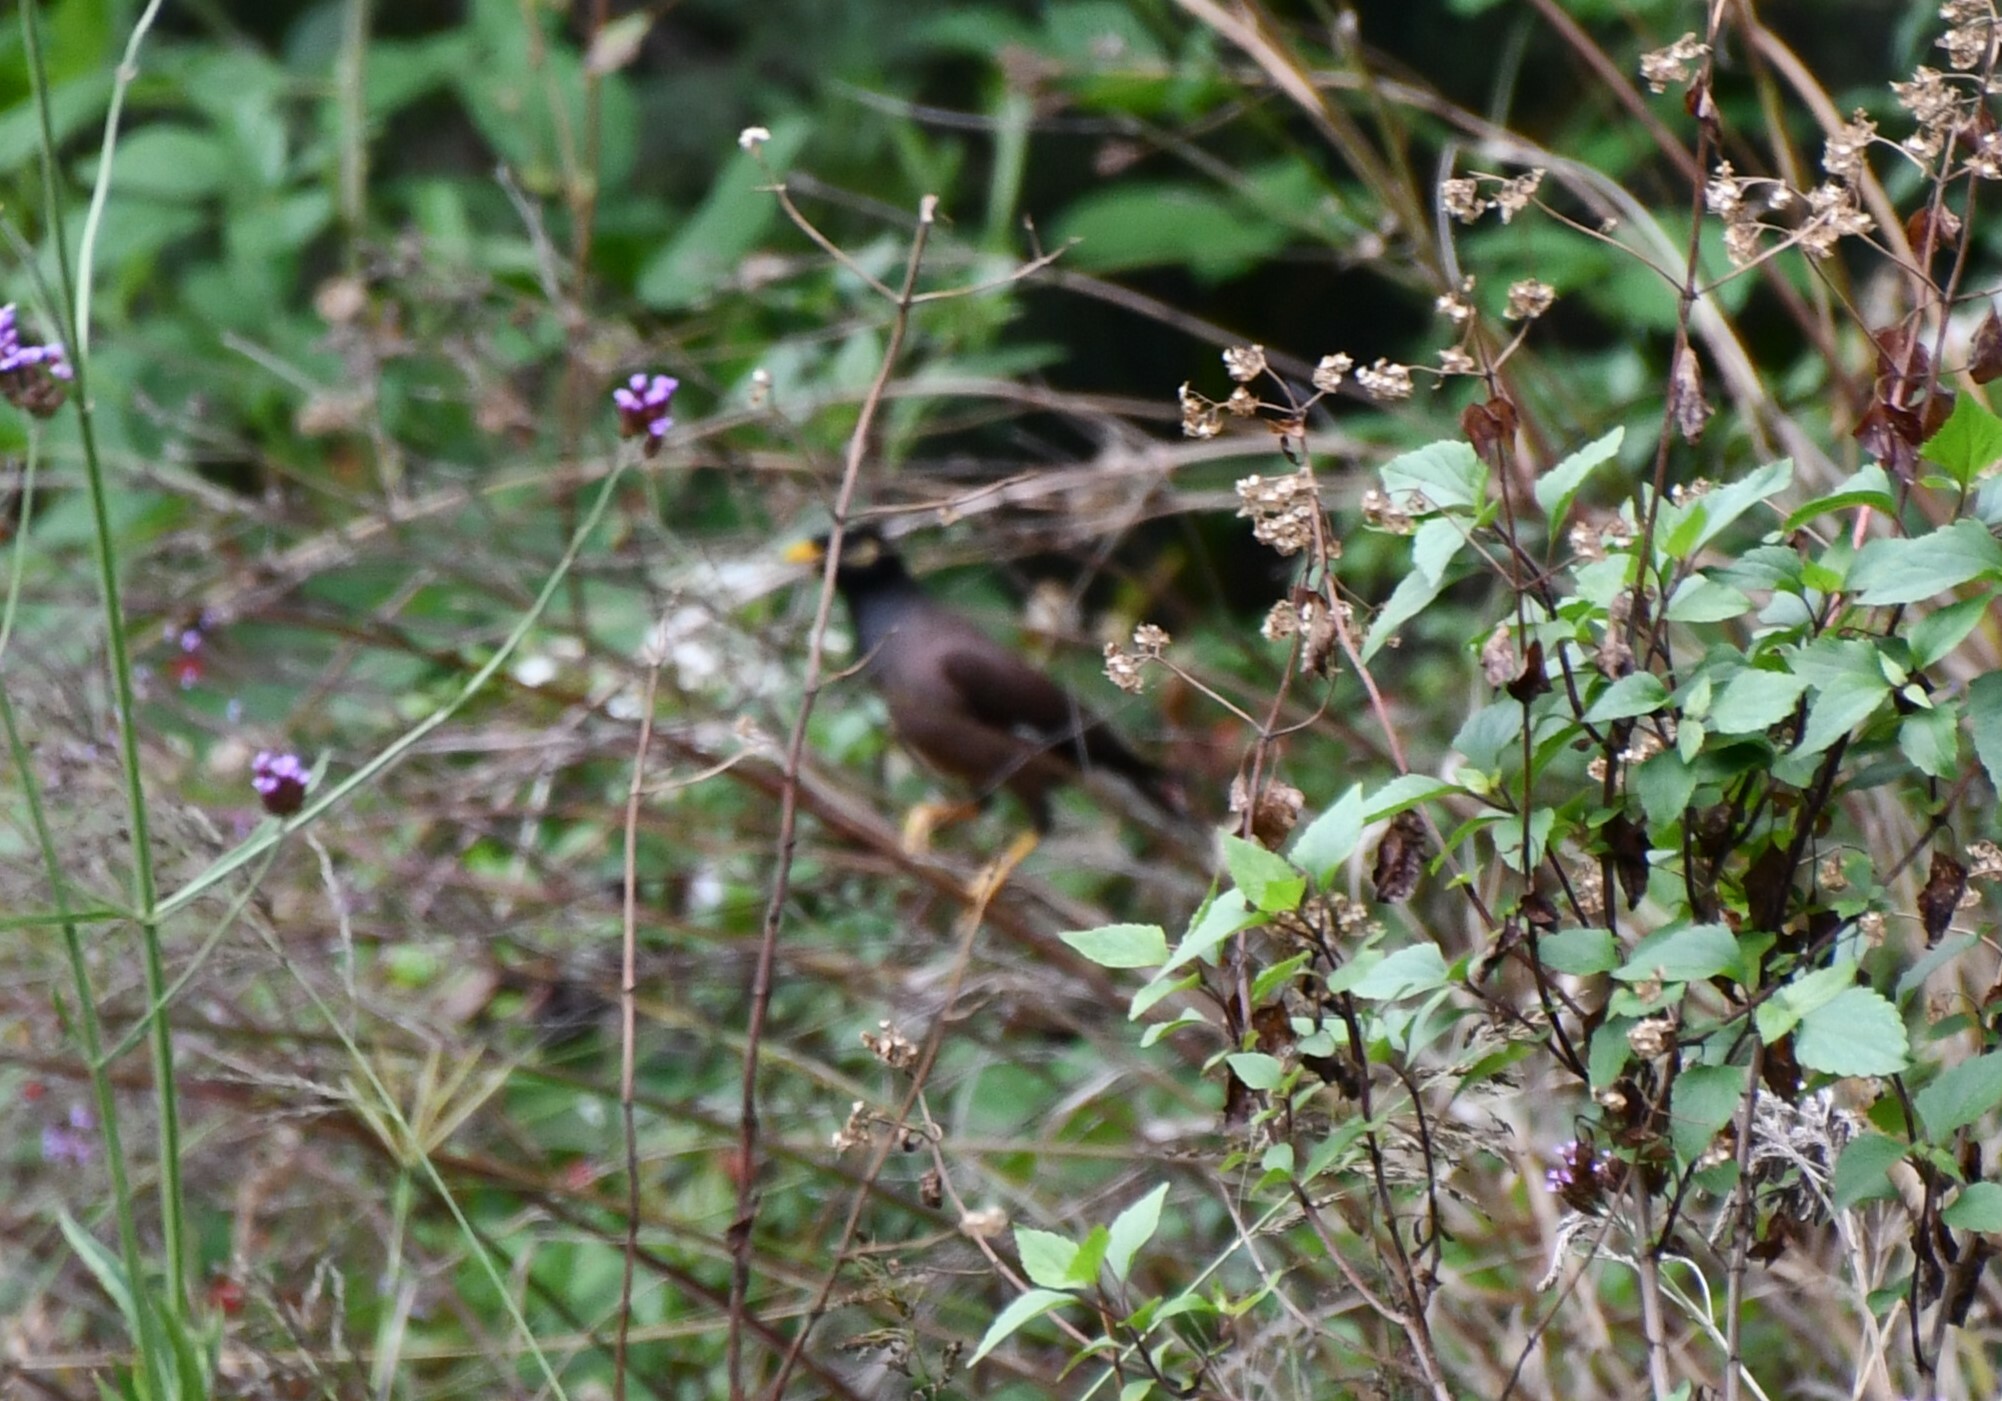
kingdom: Animalia
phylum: Chordata
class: Aves
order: Passeriformes
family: Sturnidae
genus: Acridotheres
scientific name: Acridotheres tristis
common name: Common myna
